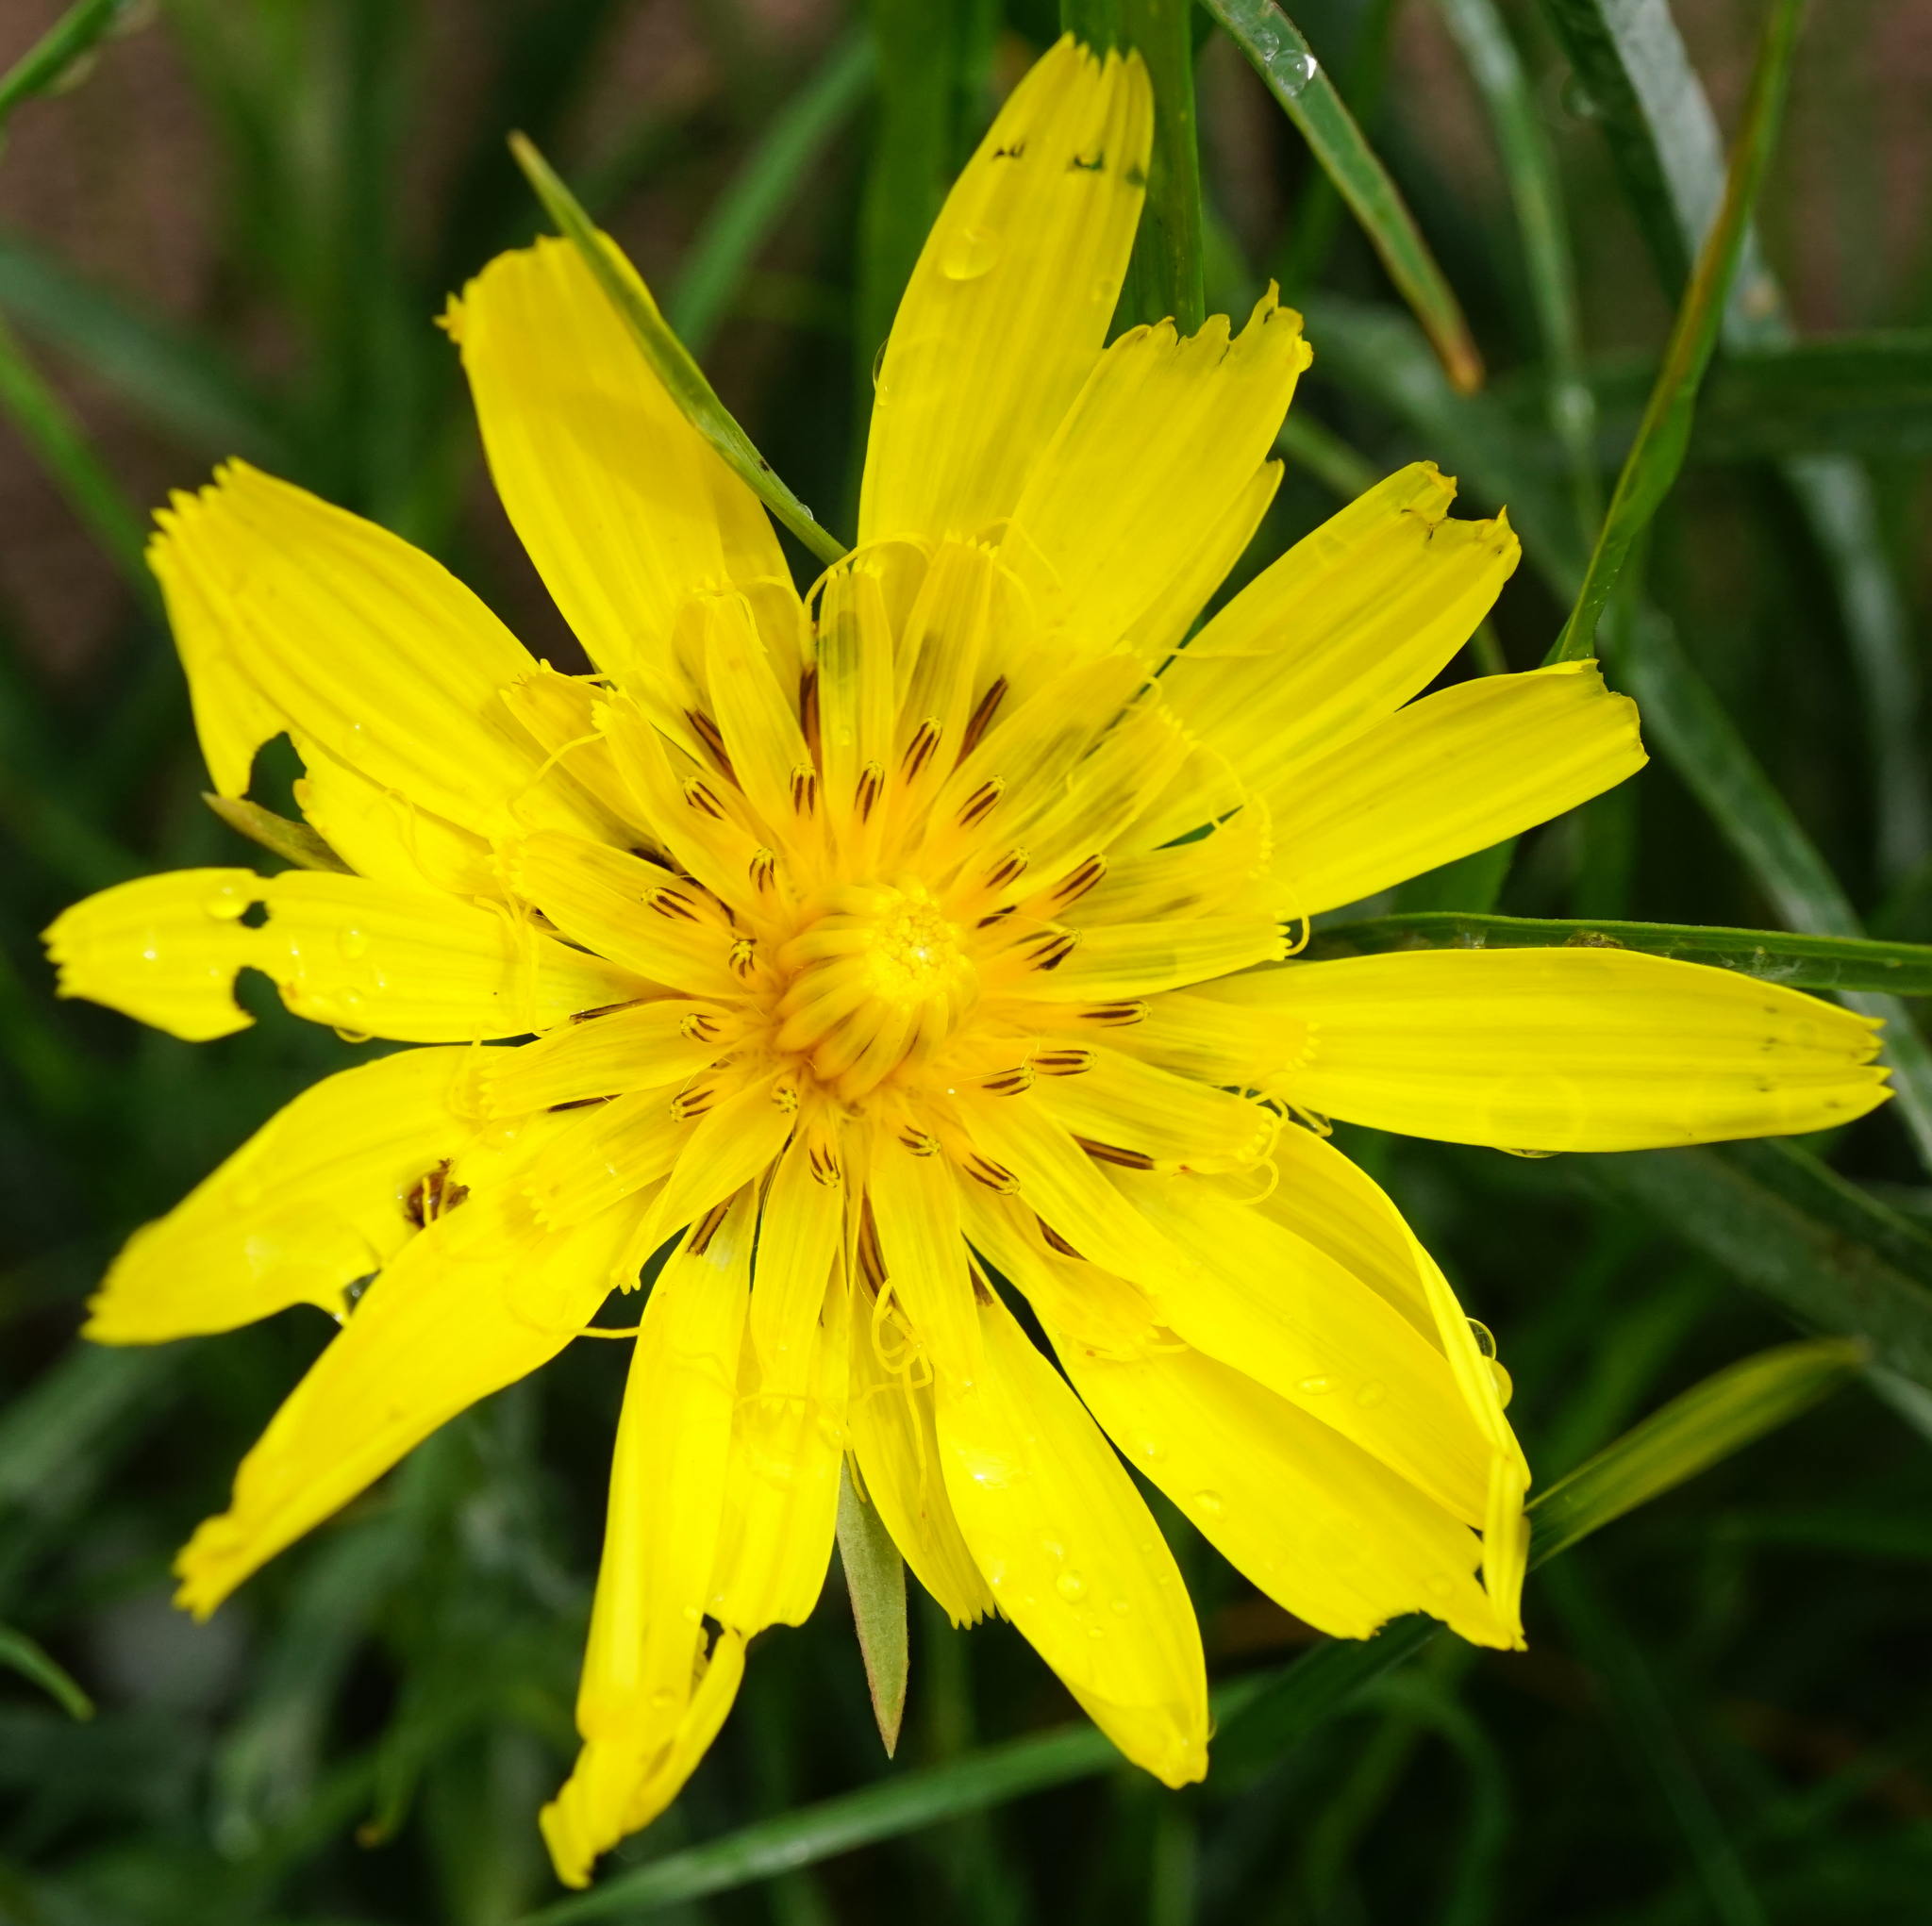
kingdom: Plantae
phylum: Tracheophyta
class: Magnoliopsida
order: Asterales
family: Asteraceae
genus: Tragopogon
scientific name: Tragopogon orientalis
